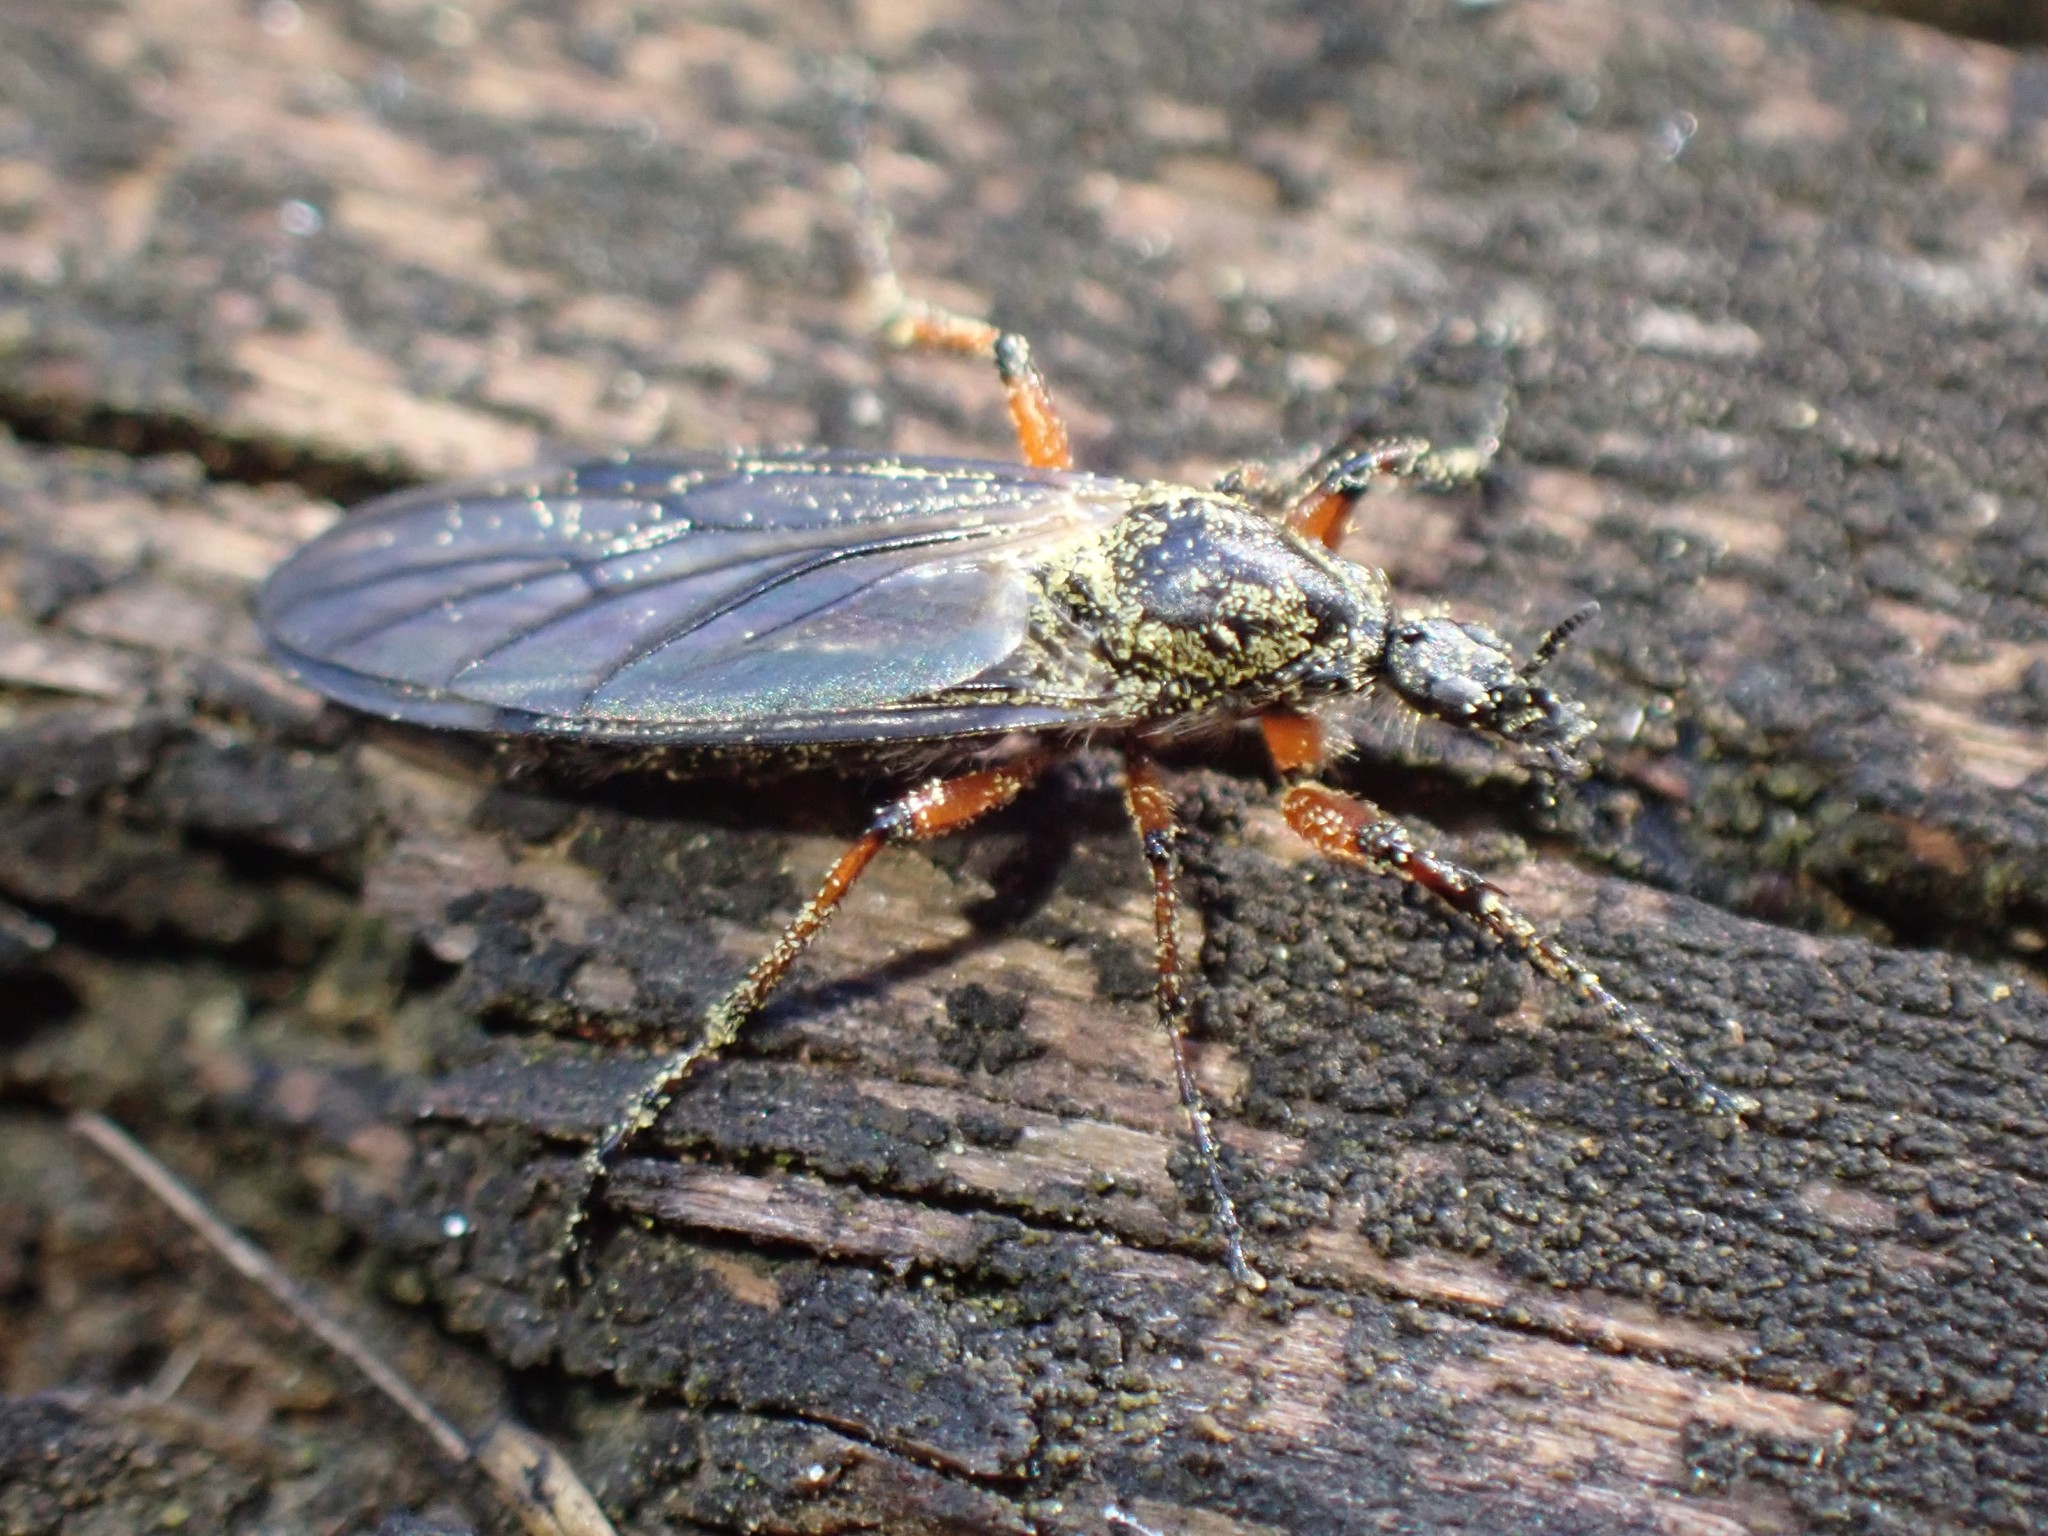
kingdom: Animalia
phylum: Arthropoda
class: Insecta
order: Diptera
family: Bibionidae
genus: Bibio
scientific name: Bibio
